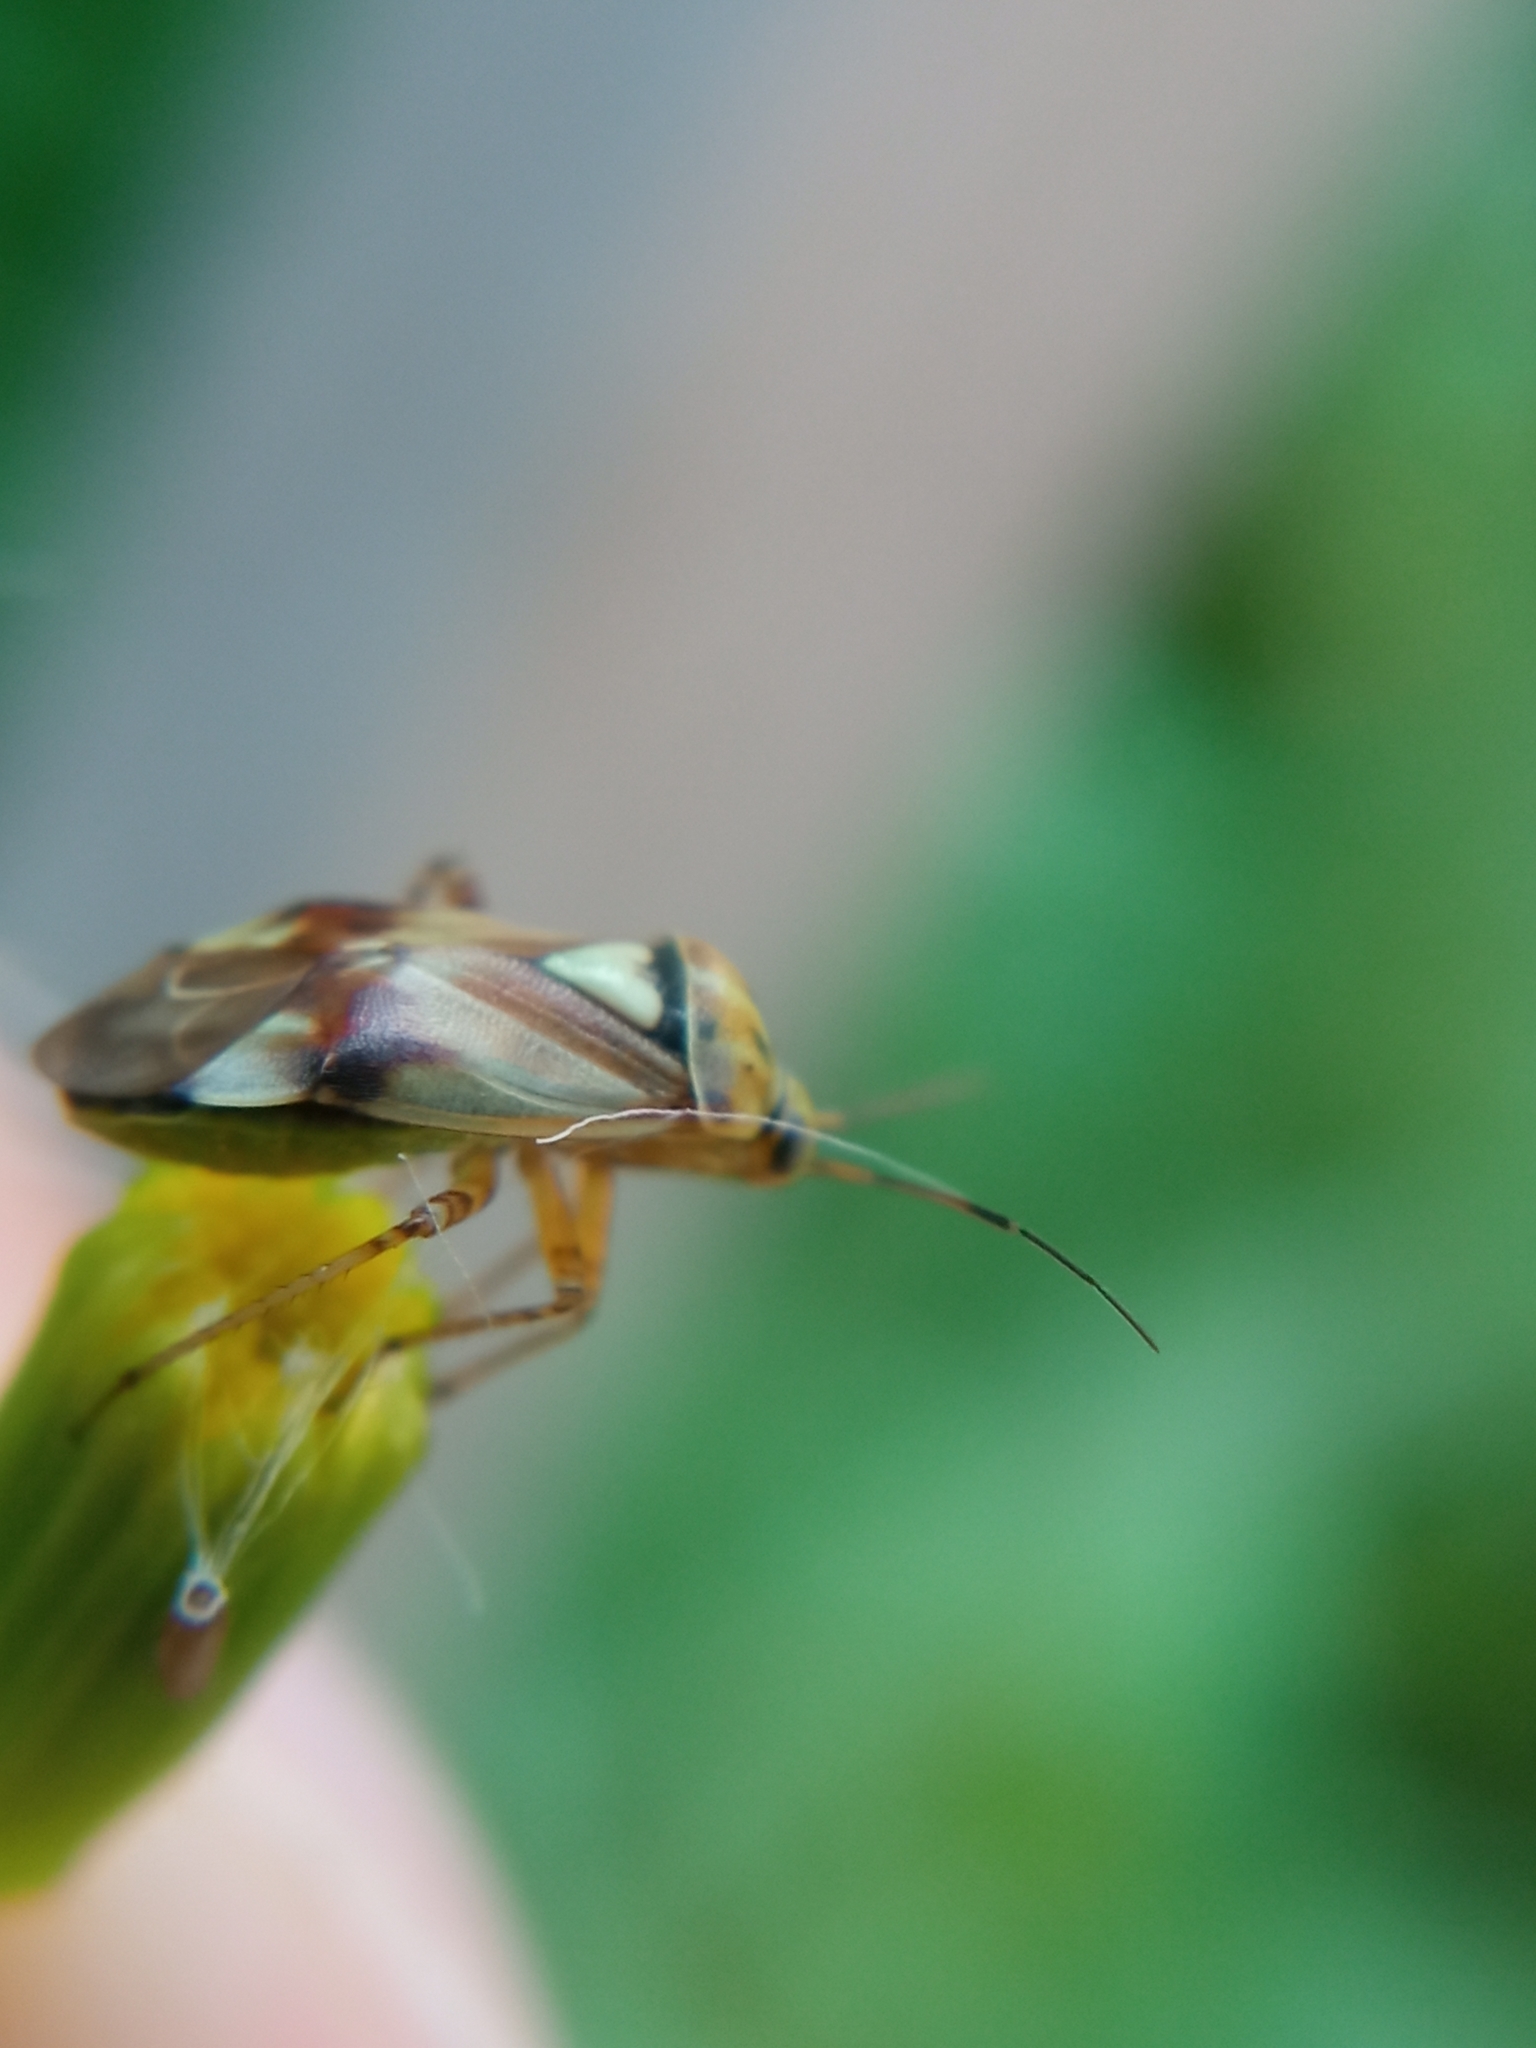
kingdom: Animalia
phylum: Arthropoda
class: Insecta
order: Hemiptera
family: Miridae
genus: Lygus
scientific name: Lygus pratensis
